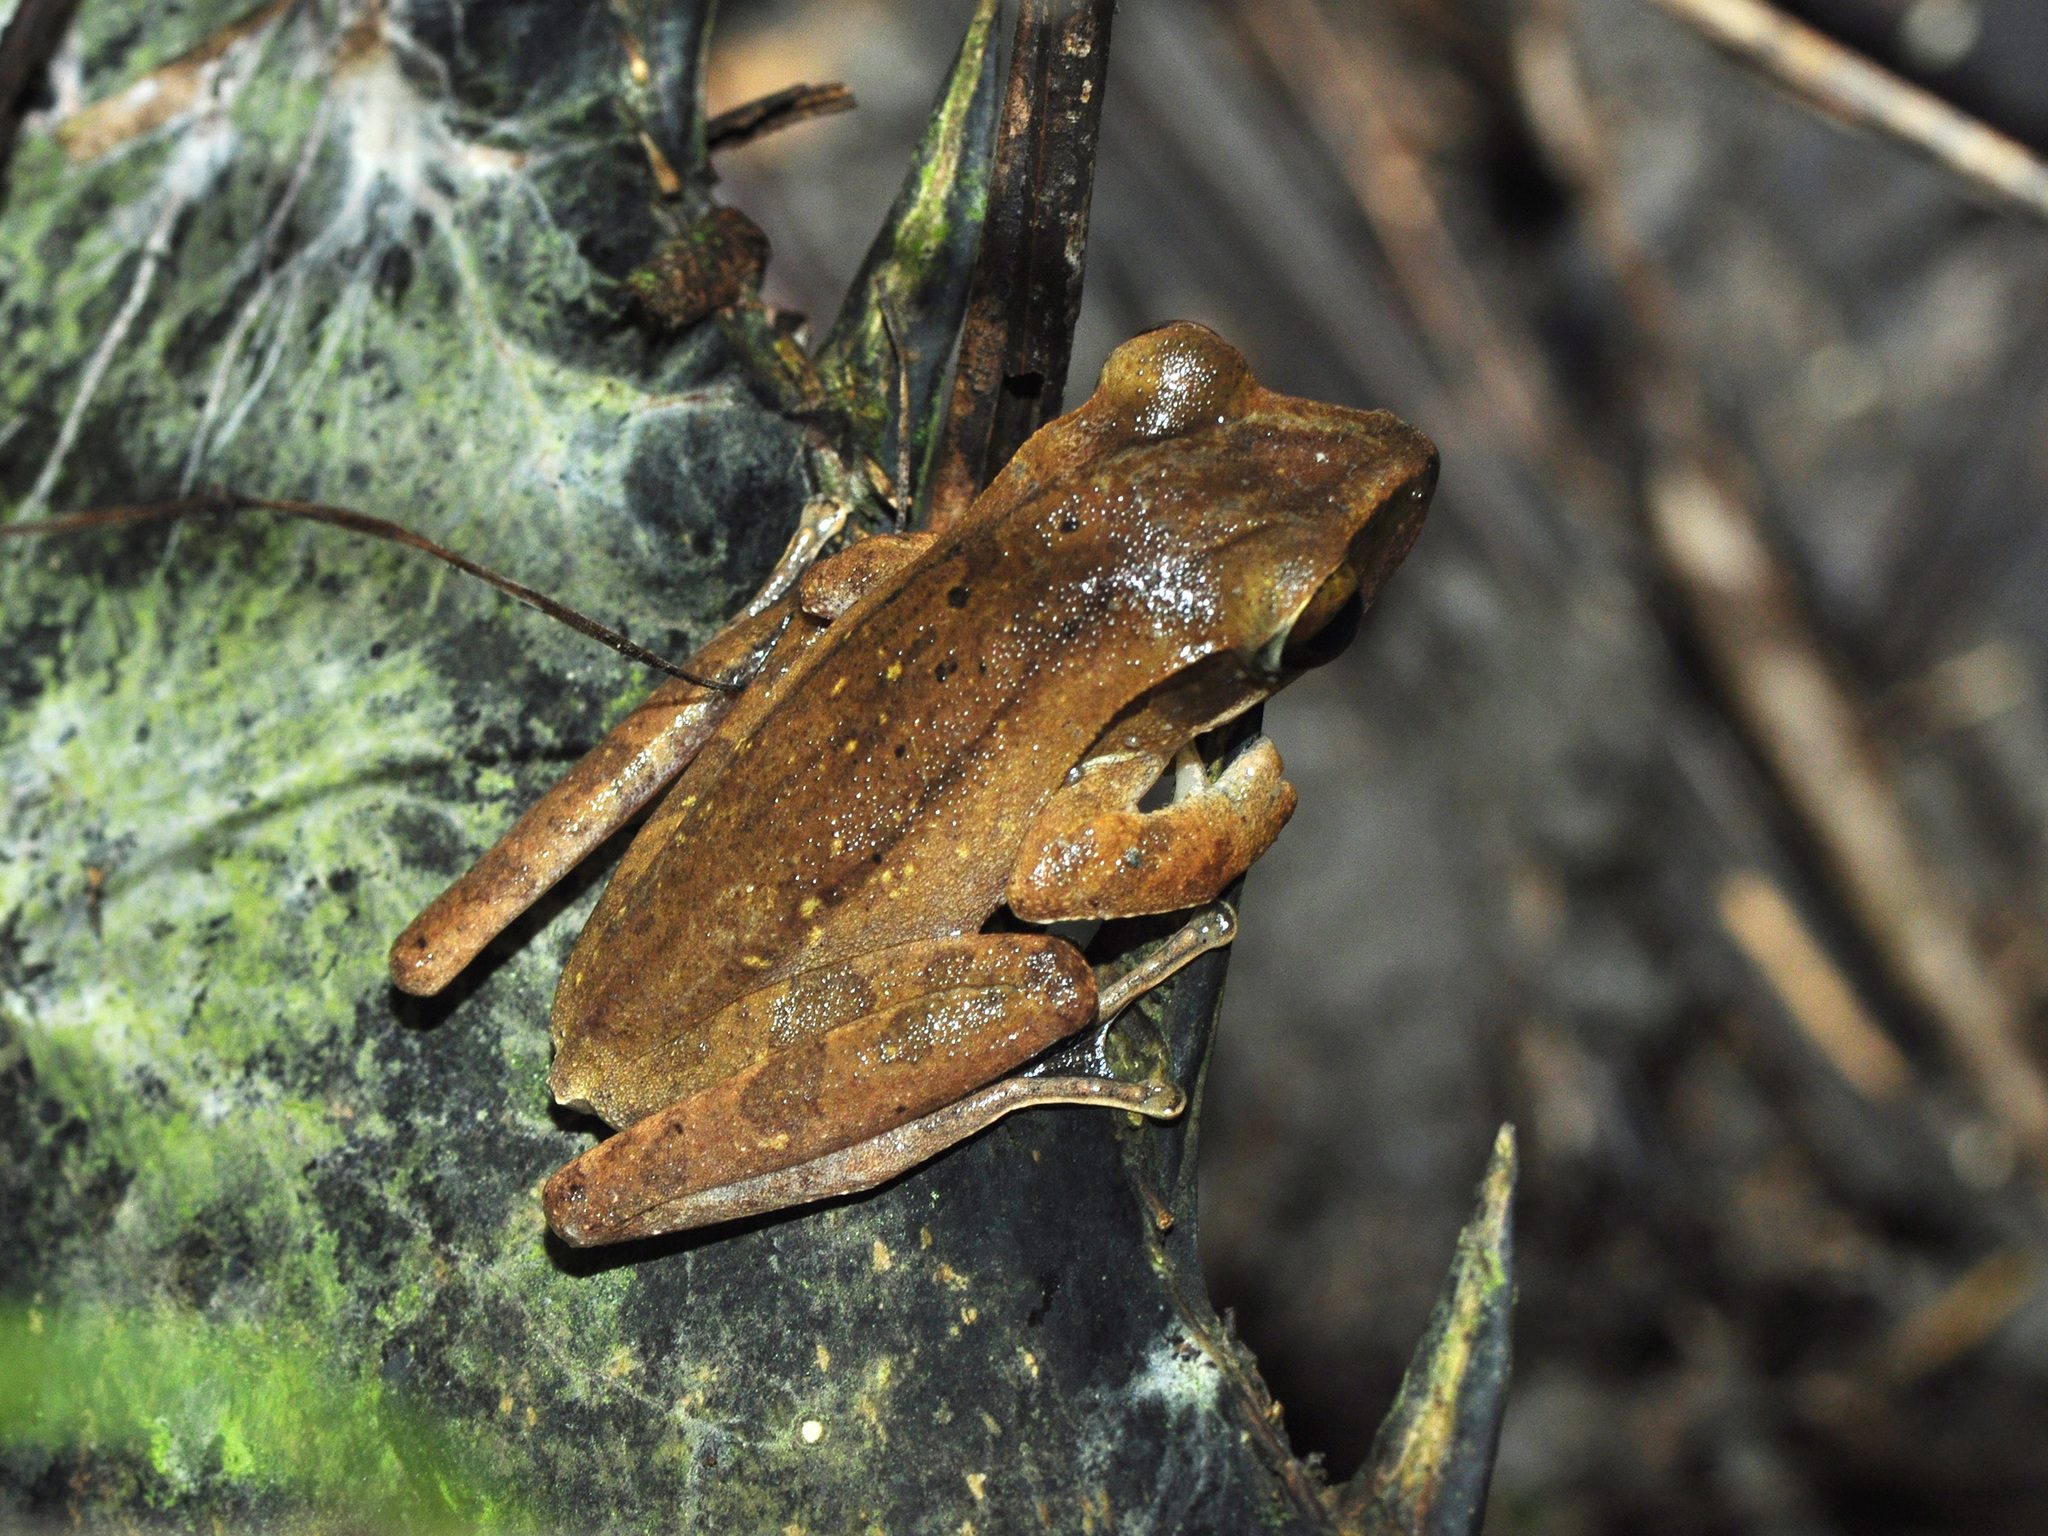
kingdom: Animalia
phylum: Chordata
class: Amphibia
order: Anura
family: Rhacophoridae
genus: Polypedates
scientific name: Polypedates leucomystax
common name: Common tree frog/four-lined tree frog
